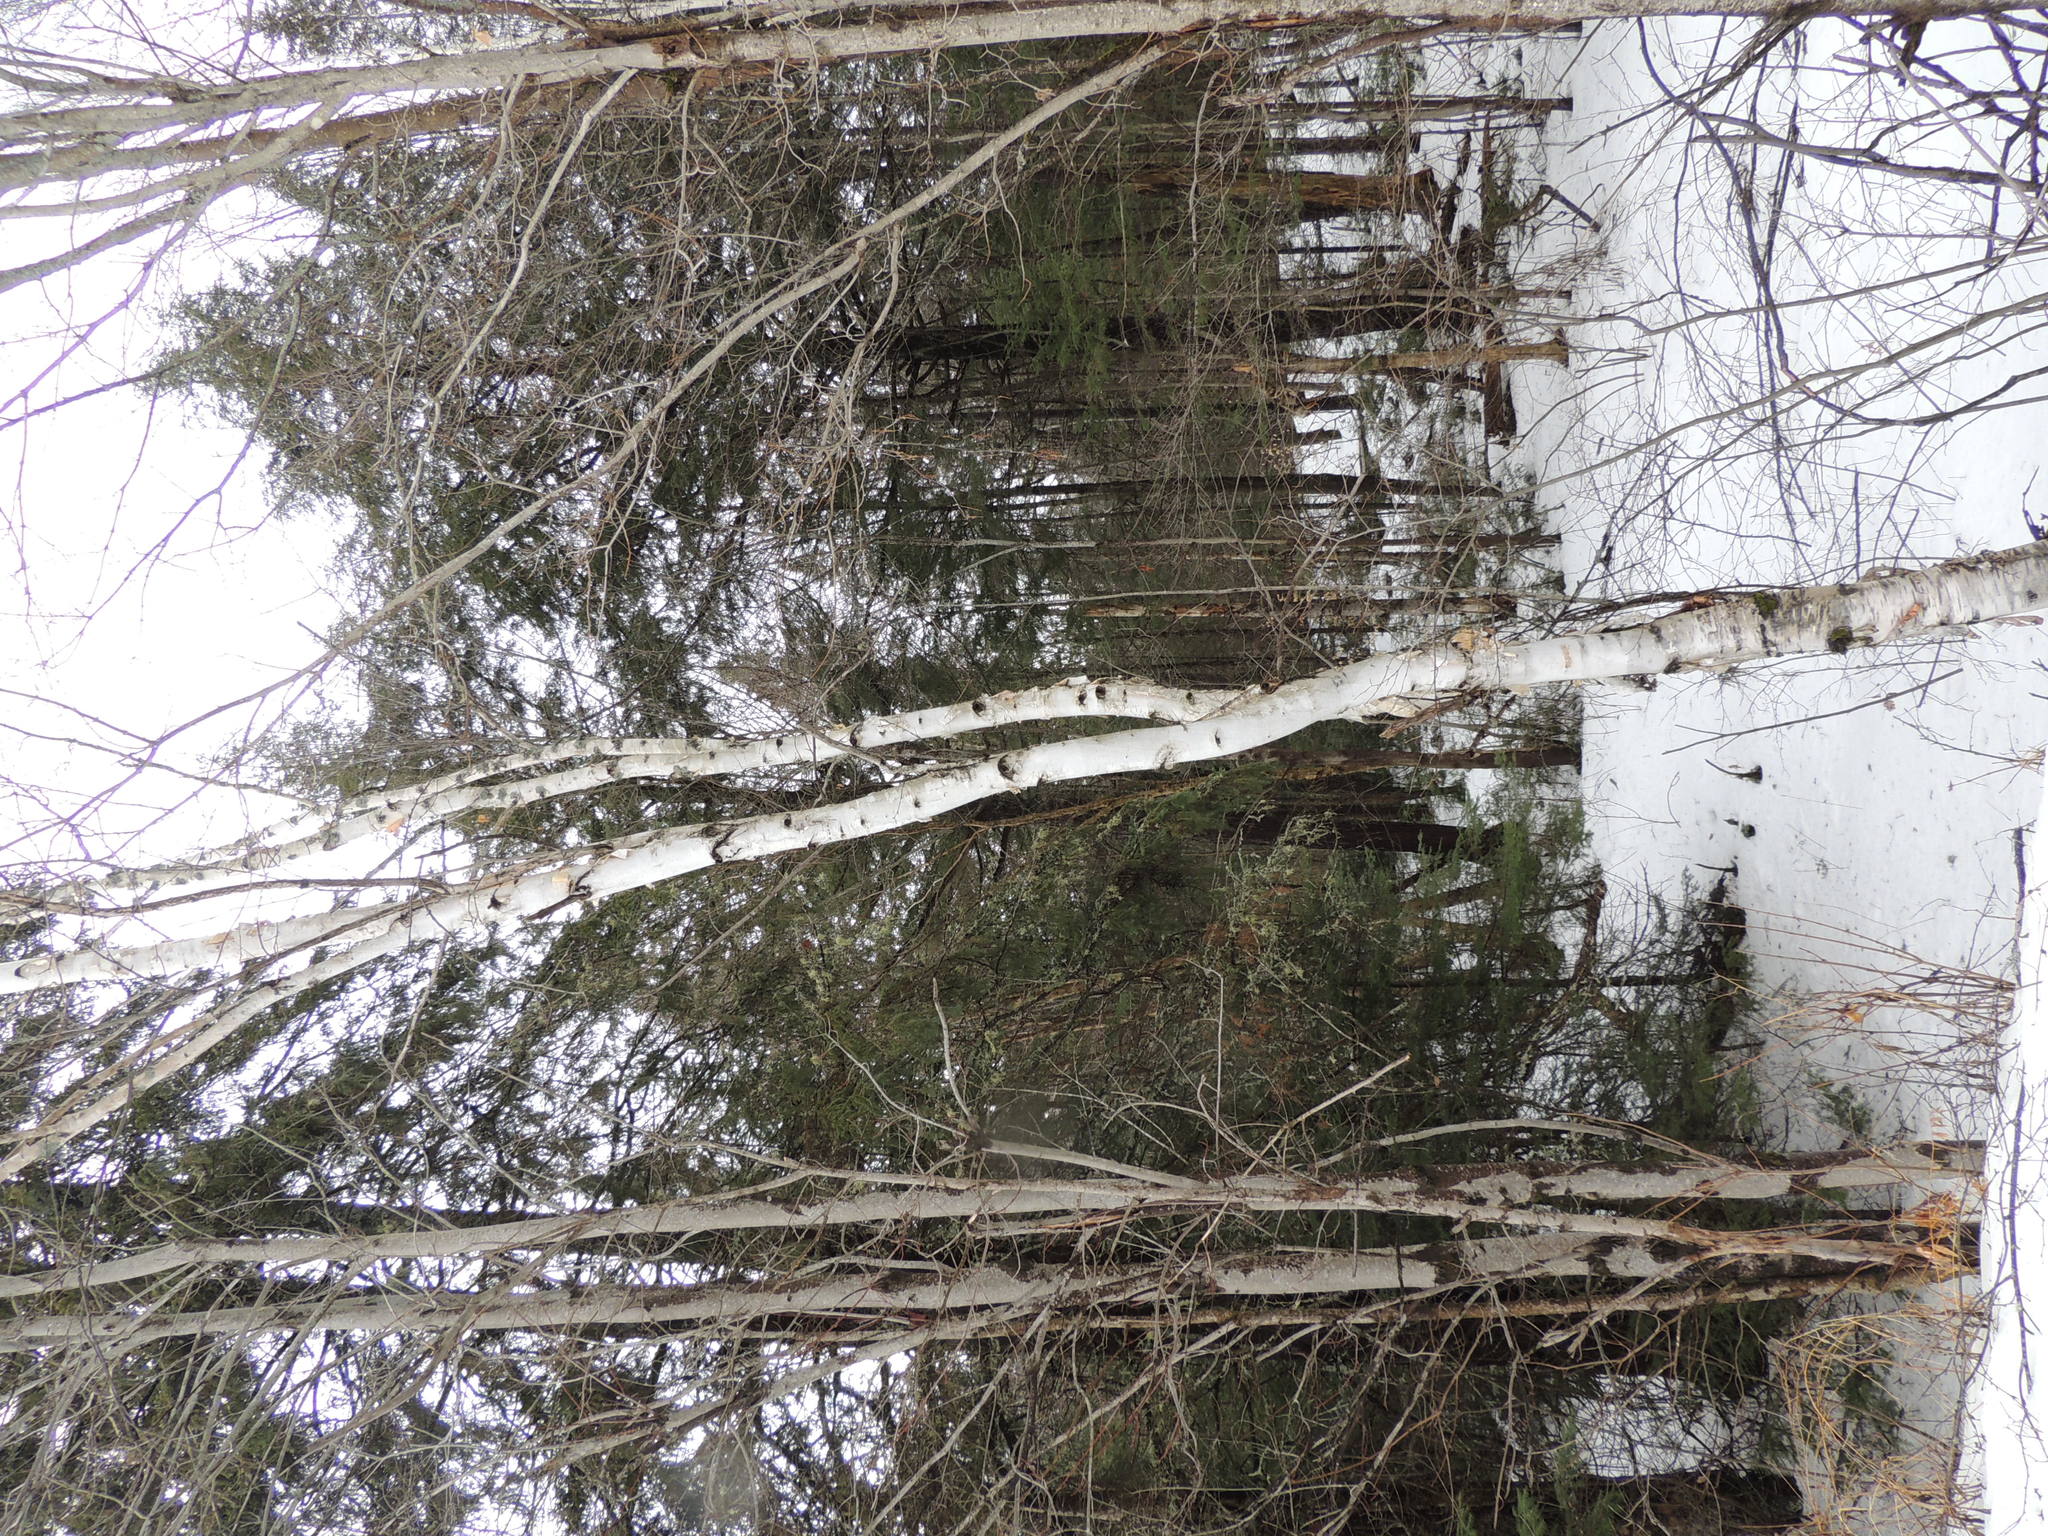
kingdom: Plantae
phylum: Tracheophyta
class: Magnoliopsida
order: Fagales
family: Betulaceae
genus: Betula
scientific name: Betula papyrifera
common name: Paper birch
